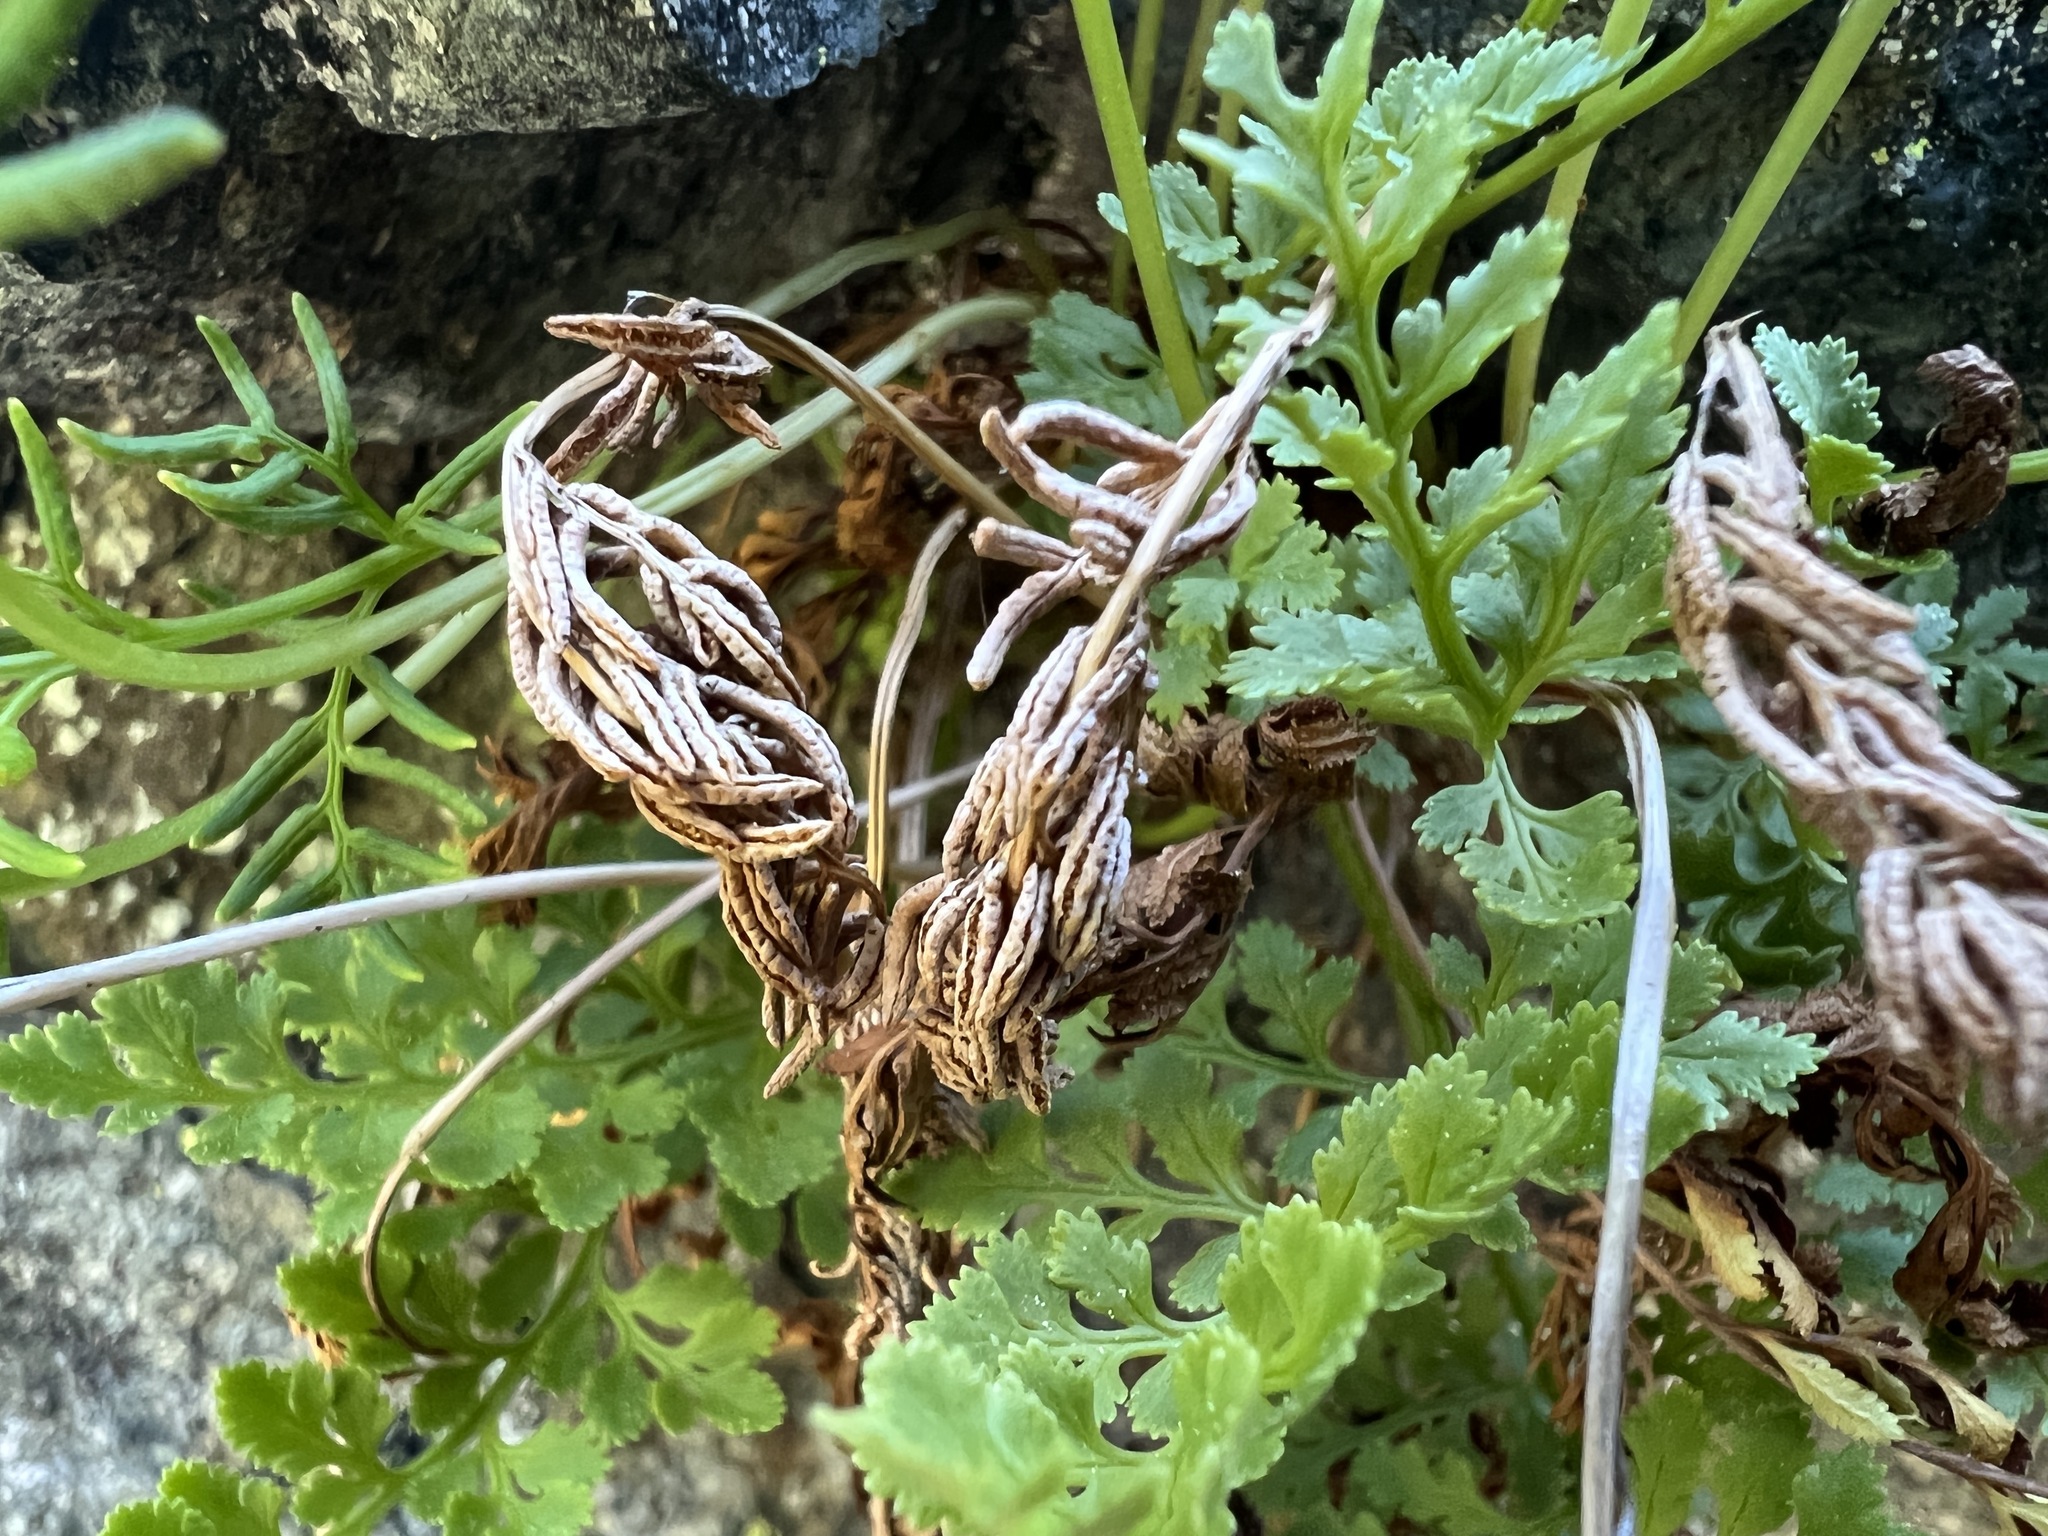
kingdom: Plantae
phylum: Tracheophyta
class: Polypodiopsida
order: Polypodiales
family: Pteridaceae
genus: Cryptogramma
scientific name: Cryptogramma acrostichoides
